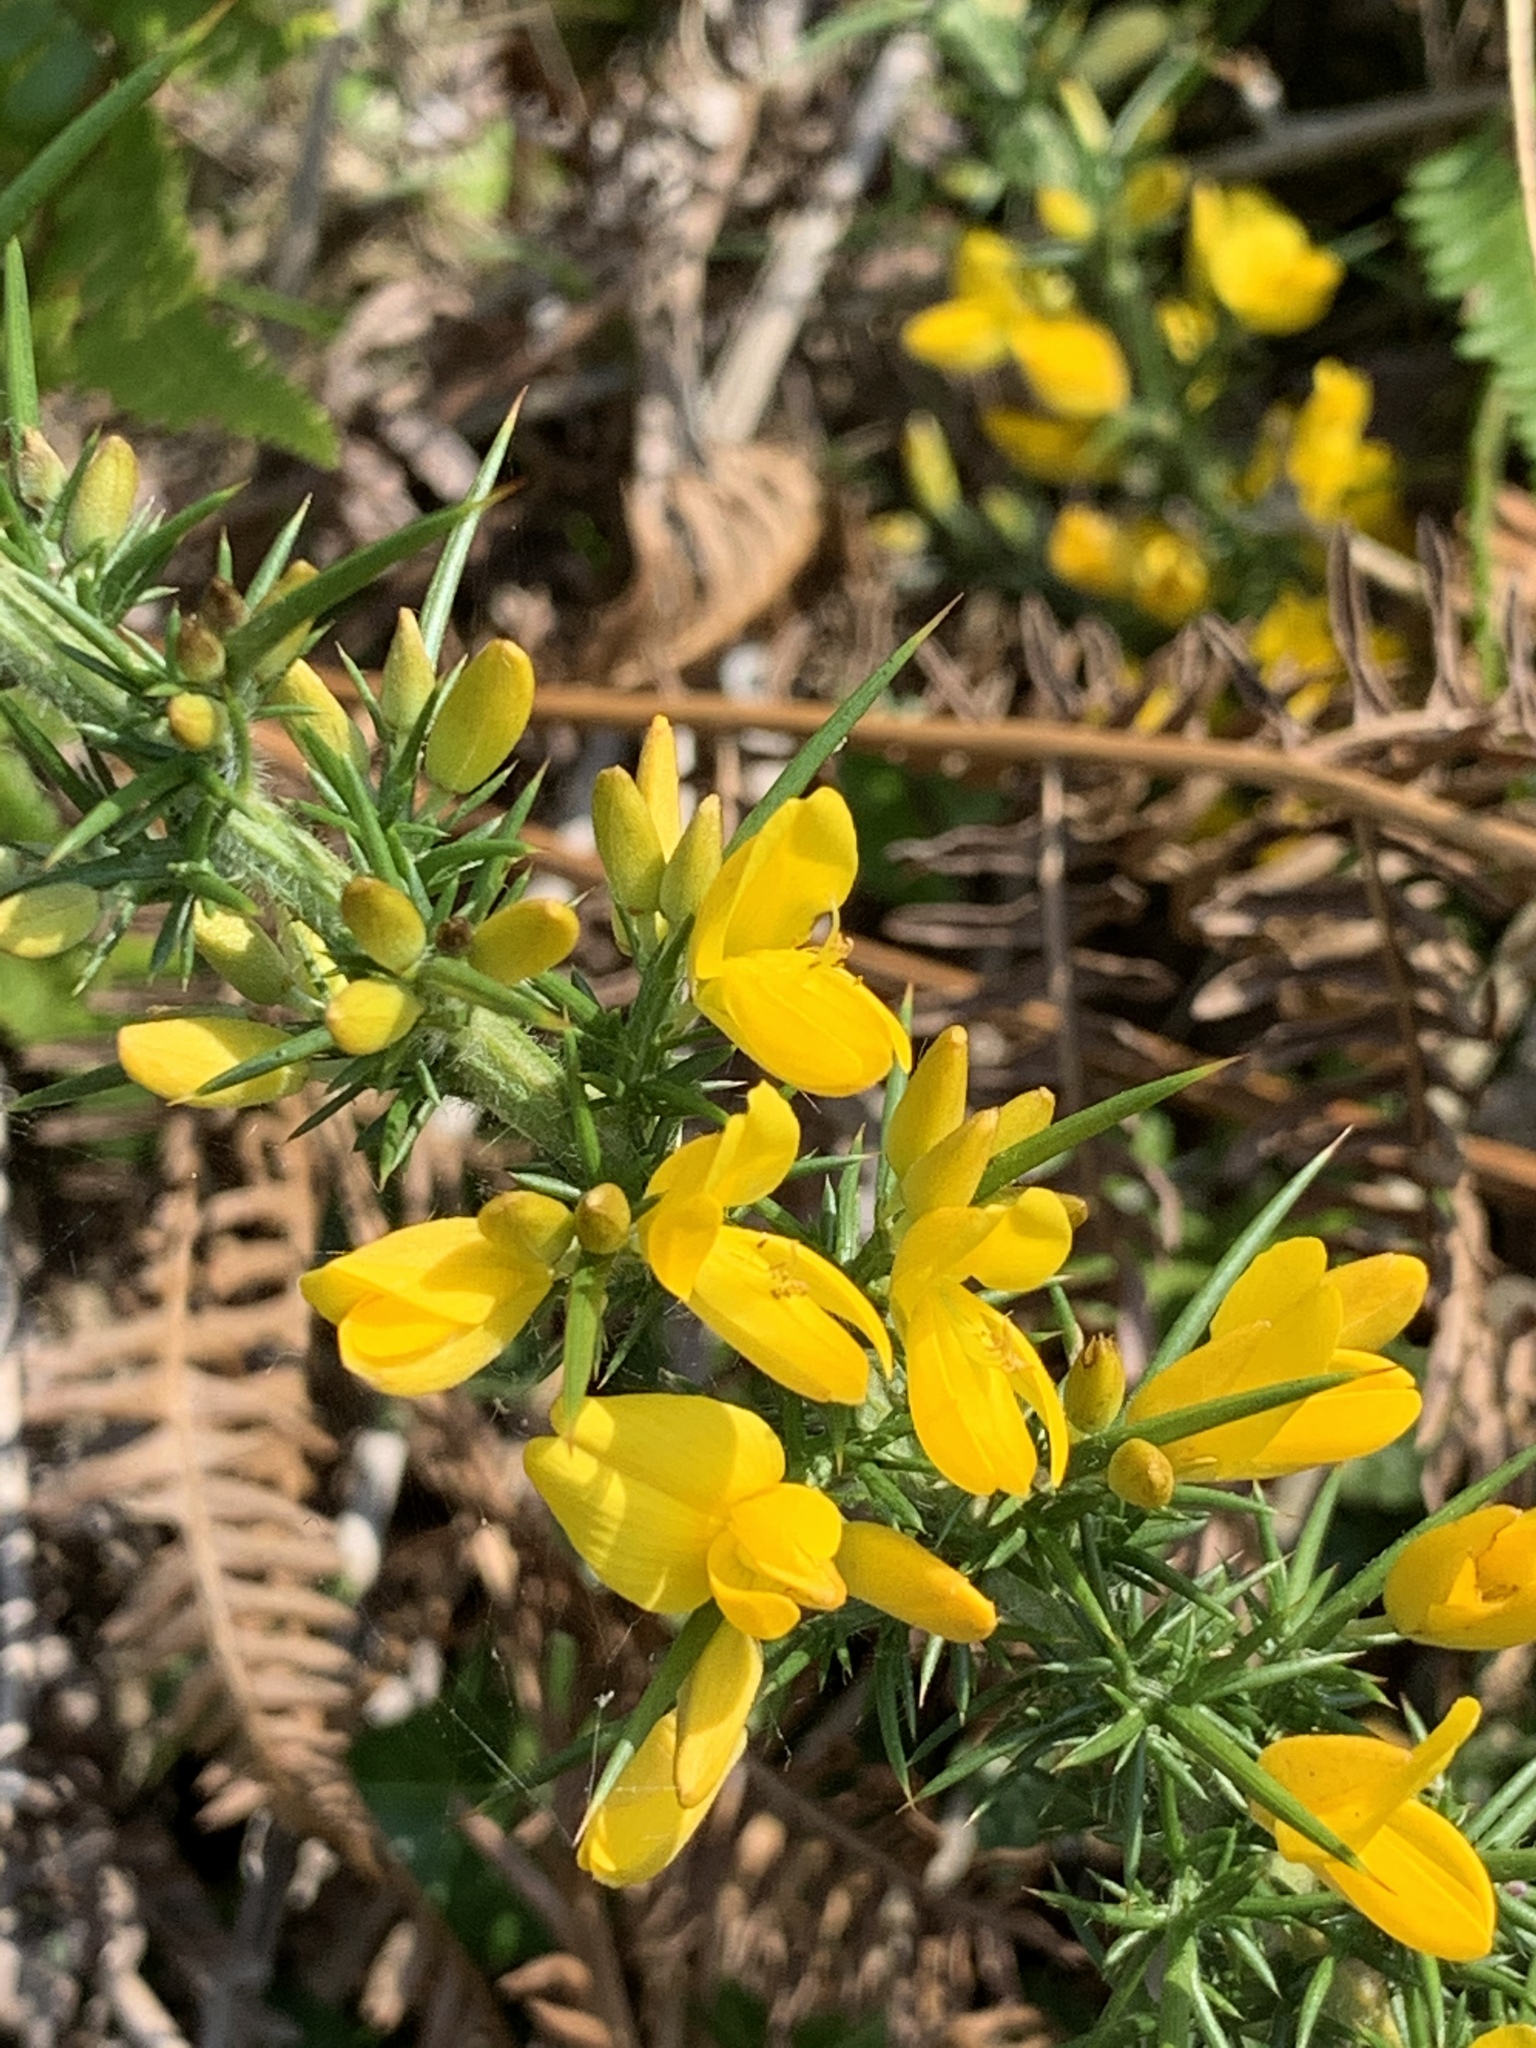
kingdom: Plantae
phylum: Tracheophyta
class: Magnoliopsida
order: Fabales
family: Fabaceae
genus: Ulex
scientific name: Ulex europaeus
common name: Common gorse
